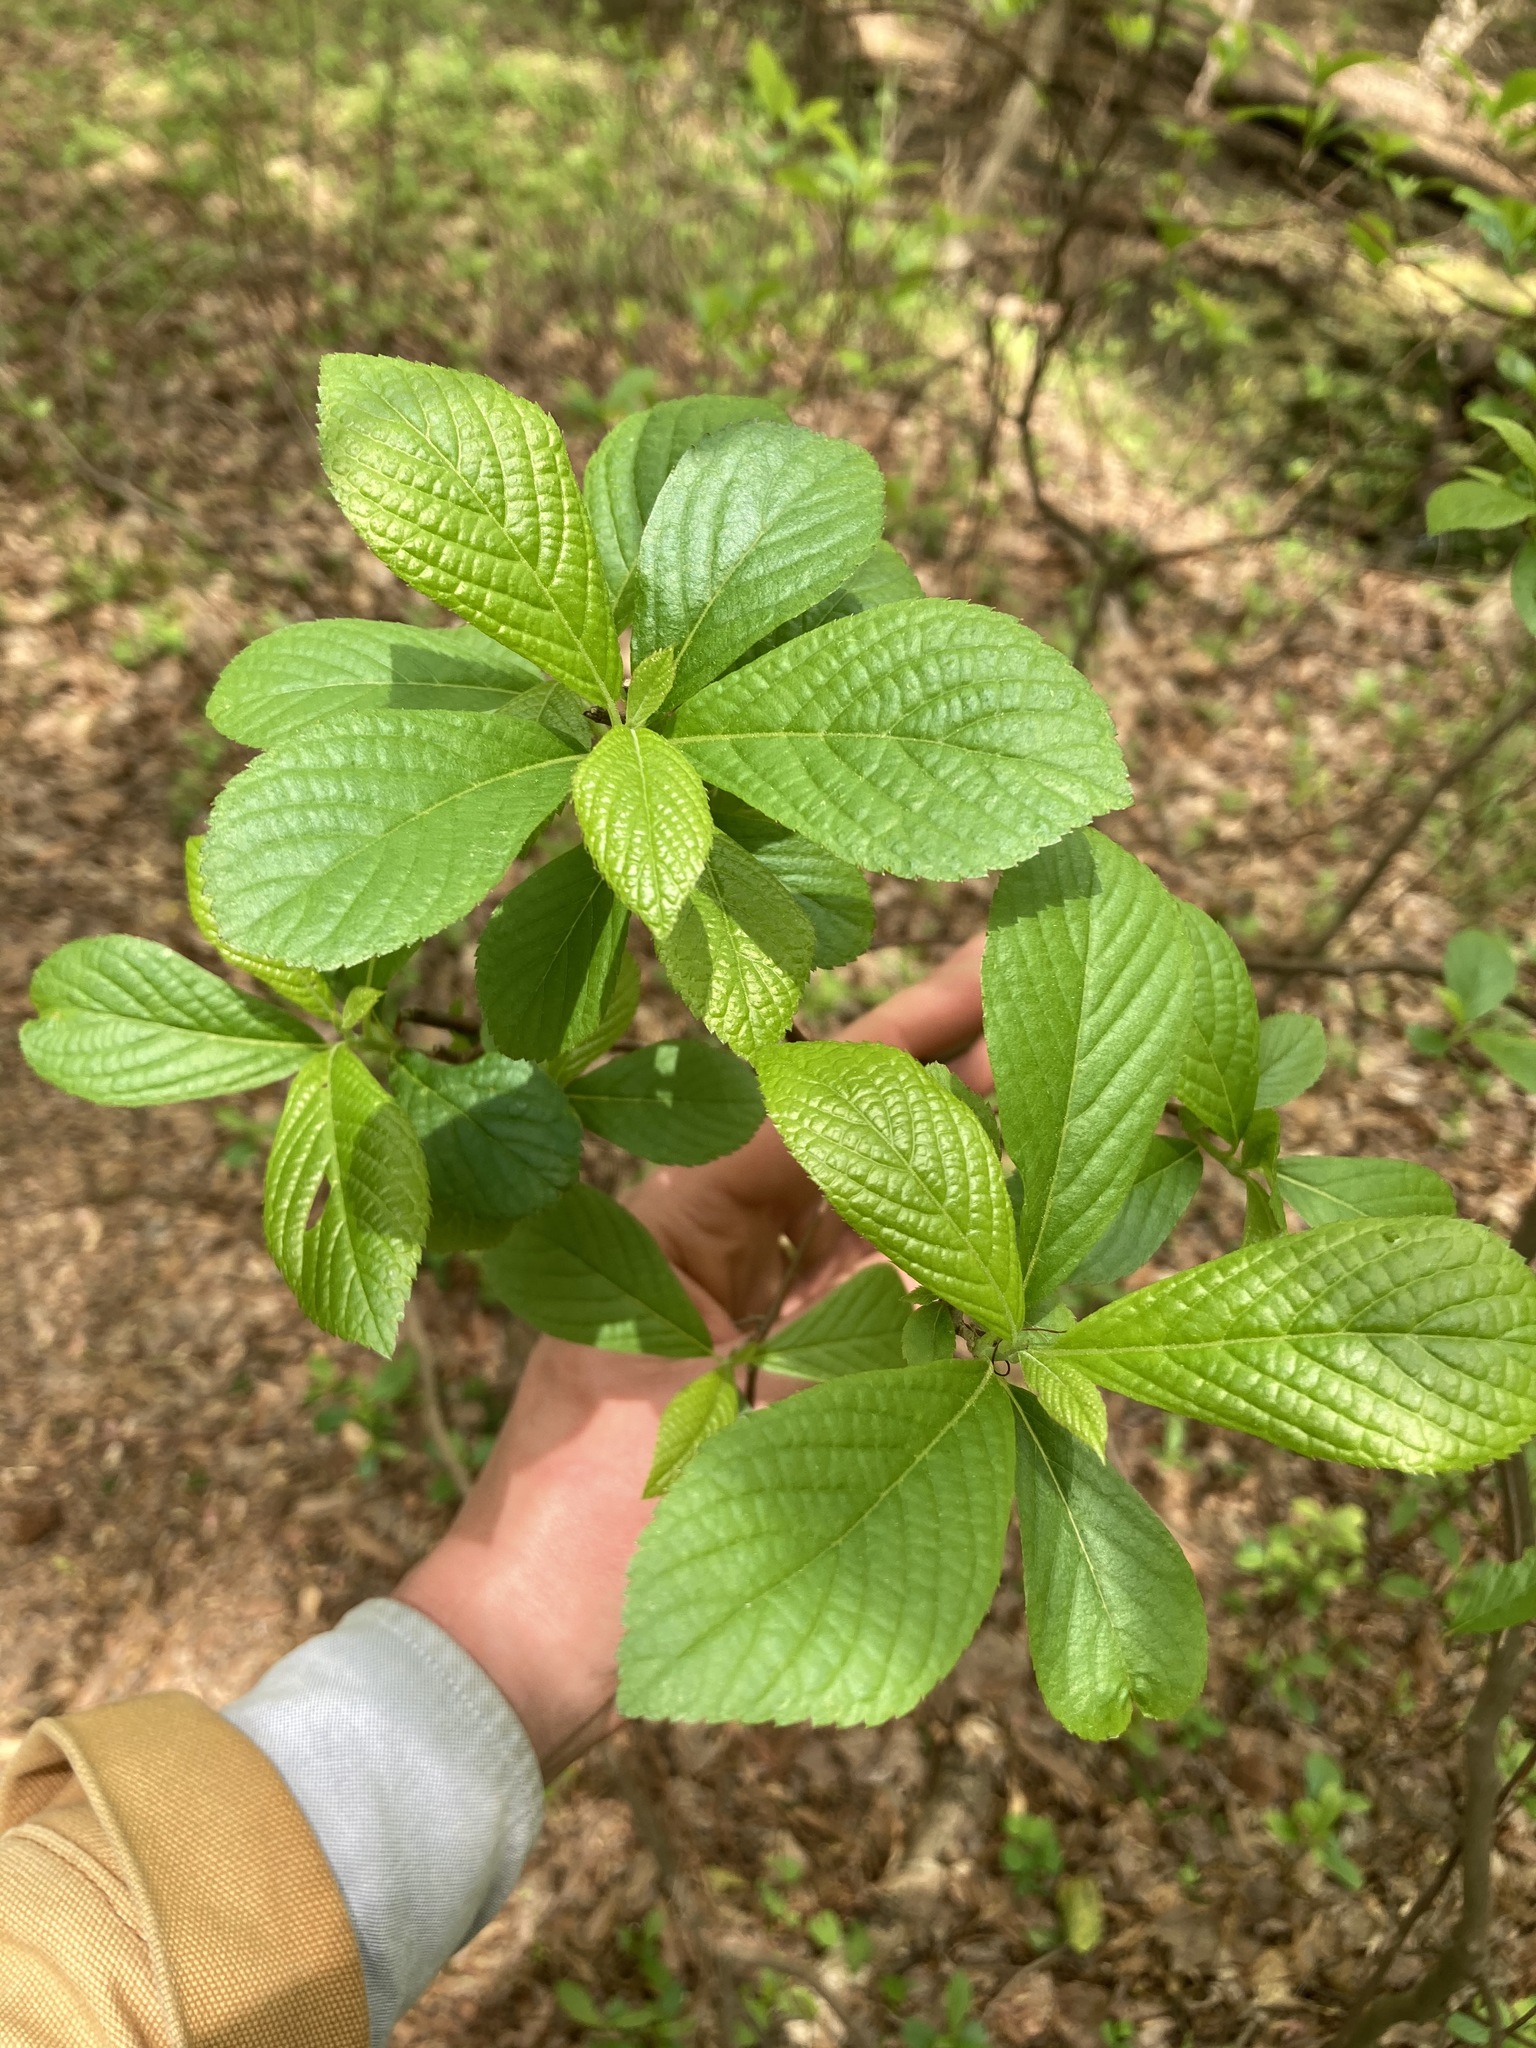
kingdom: Plantae
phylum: Tracheophyta
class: Magnoliopsida
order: Ericales
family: Clethraceae
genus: Clethra
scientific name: Clethra alnifolia
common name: Sweet pepperbush
